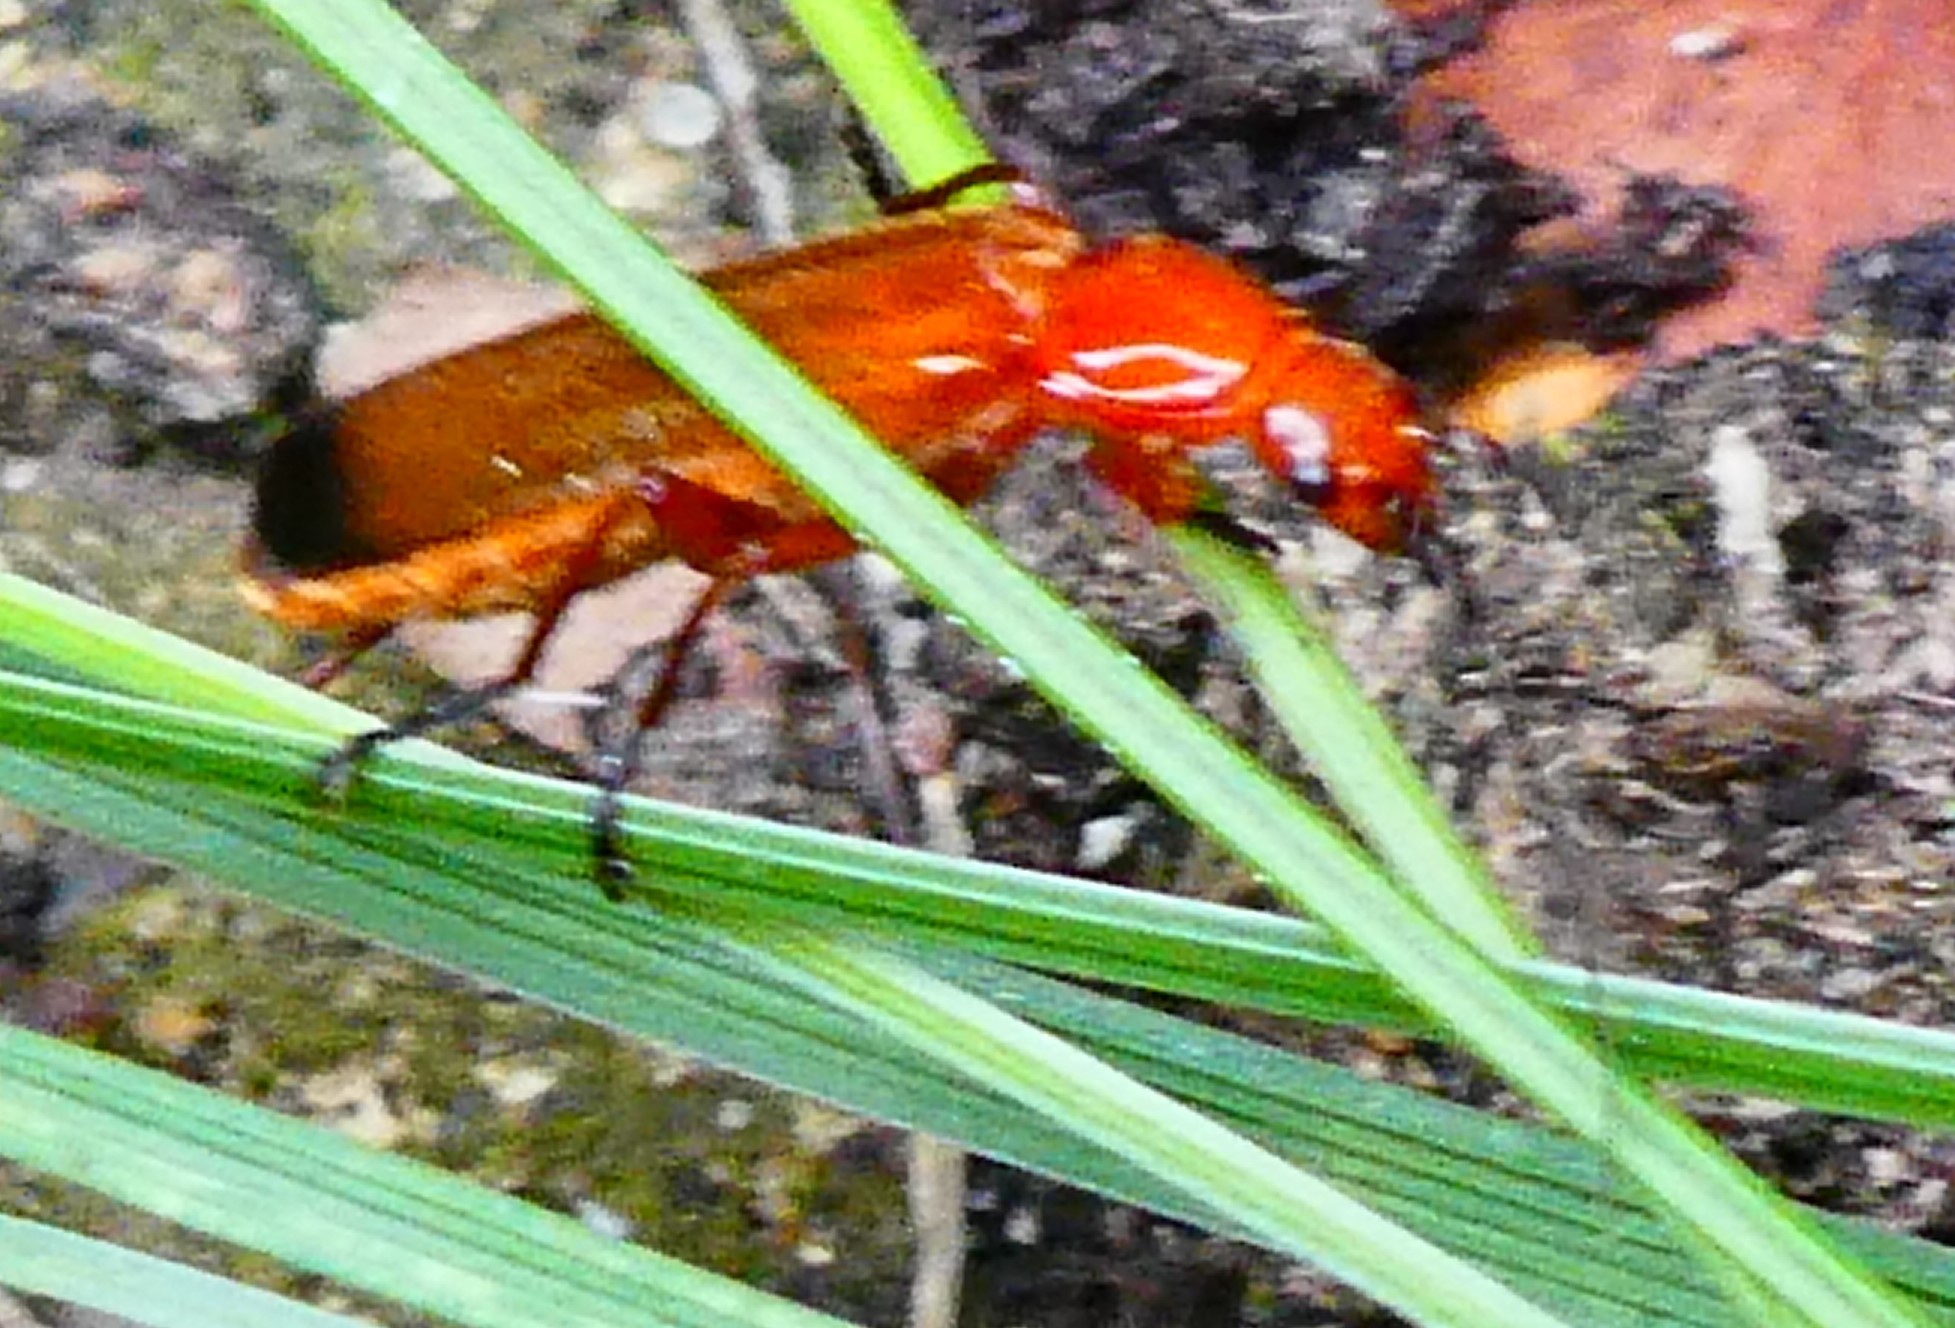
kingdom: Animalia
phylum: Arthropoda
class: Insecta
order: Coleoptera
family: Cantharidae
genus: Rhagonycha
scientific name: Rhagonycha fulva
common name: Common red soldier beetle
